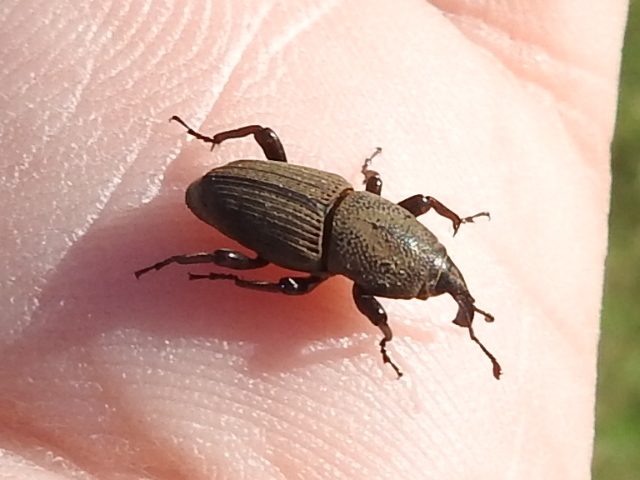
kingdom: Animalia
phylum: Arthropoda
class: Insecta
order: Coleoptera
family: Dryophthoridae
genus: Sphenophorus
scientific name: Sphenophorus coesifrons
